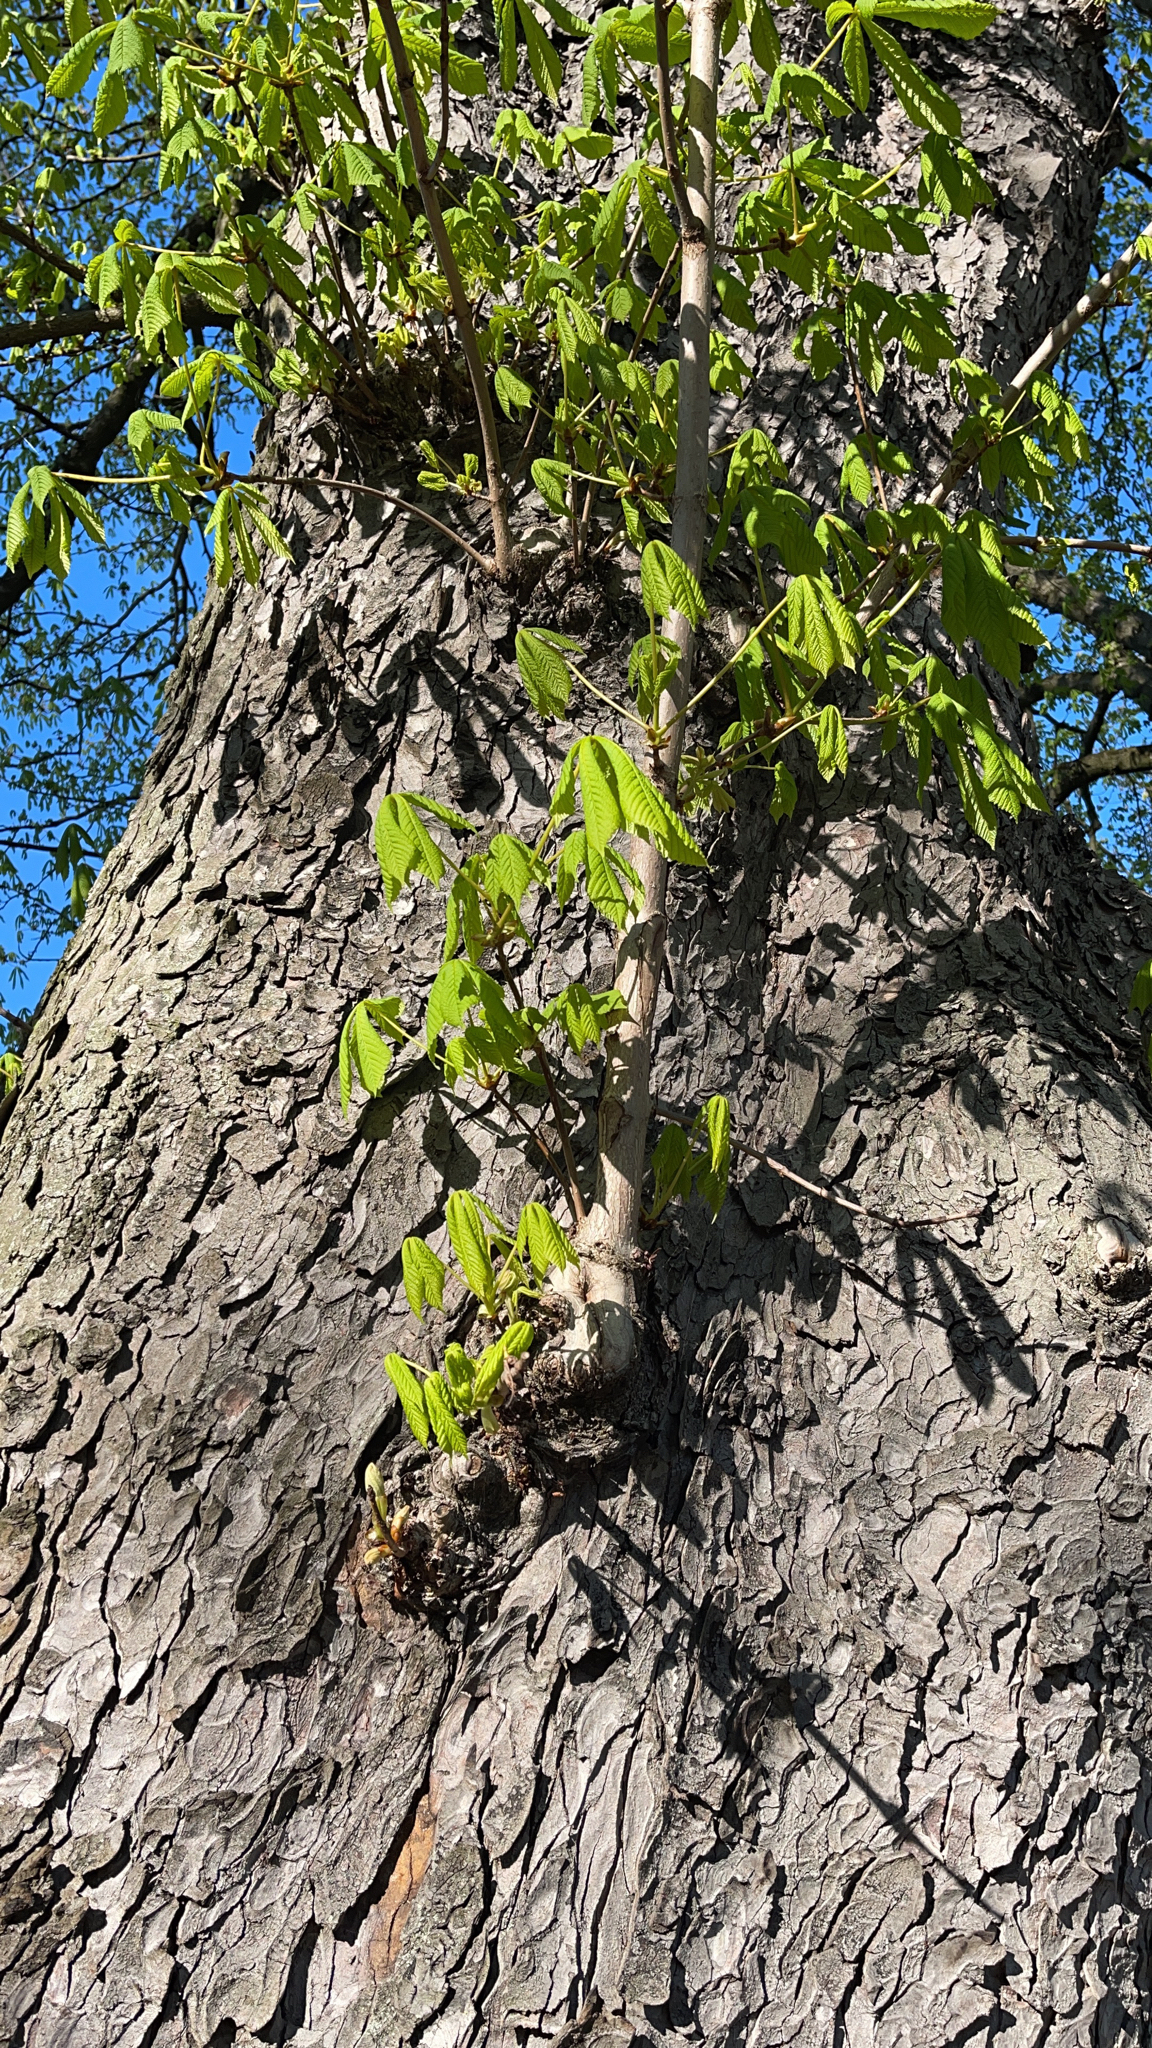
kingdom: Plantae
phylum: Tracheophyta
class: Magnoliopsida
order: Sapindales
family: Sapindaceae
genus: Aesculus
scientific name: Aesculus hippocastanum
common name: Horse-chestnut
